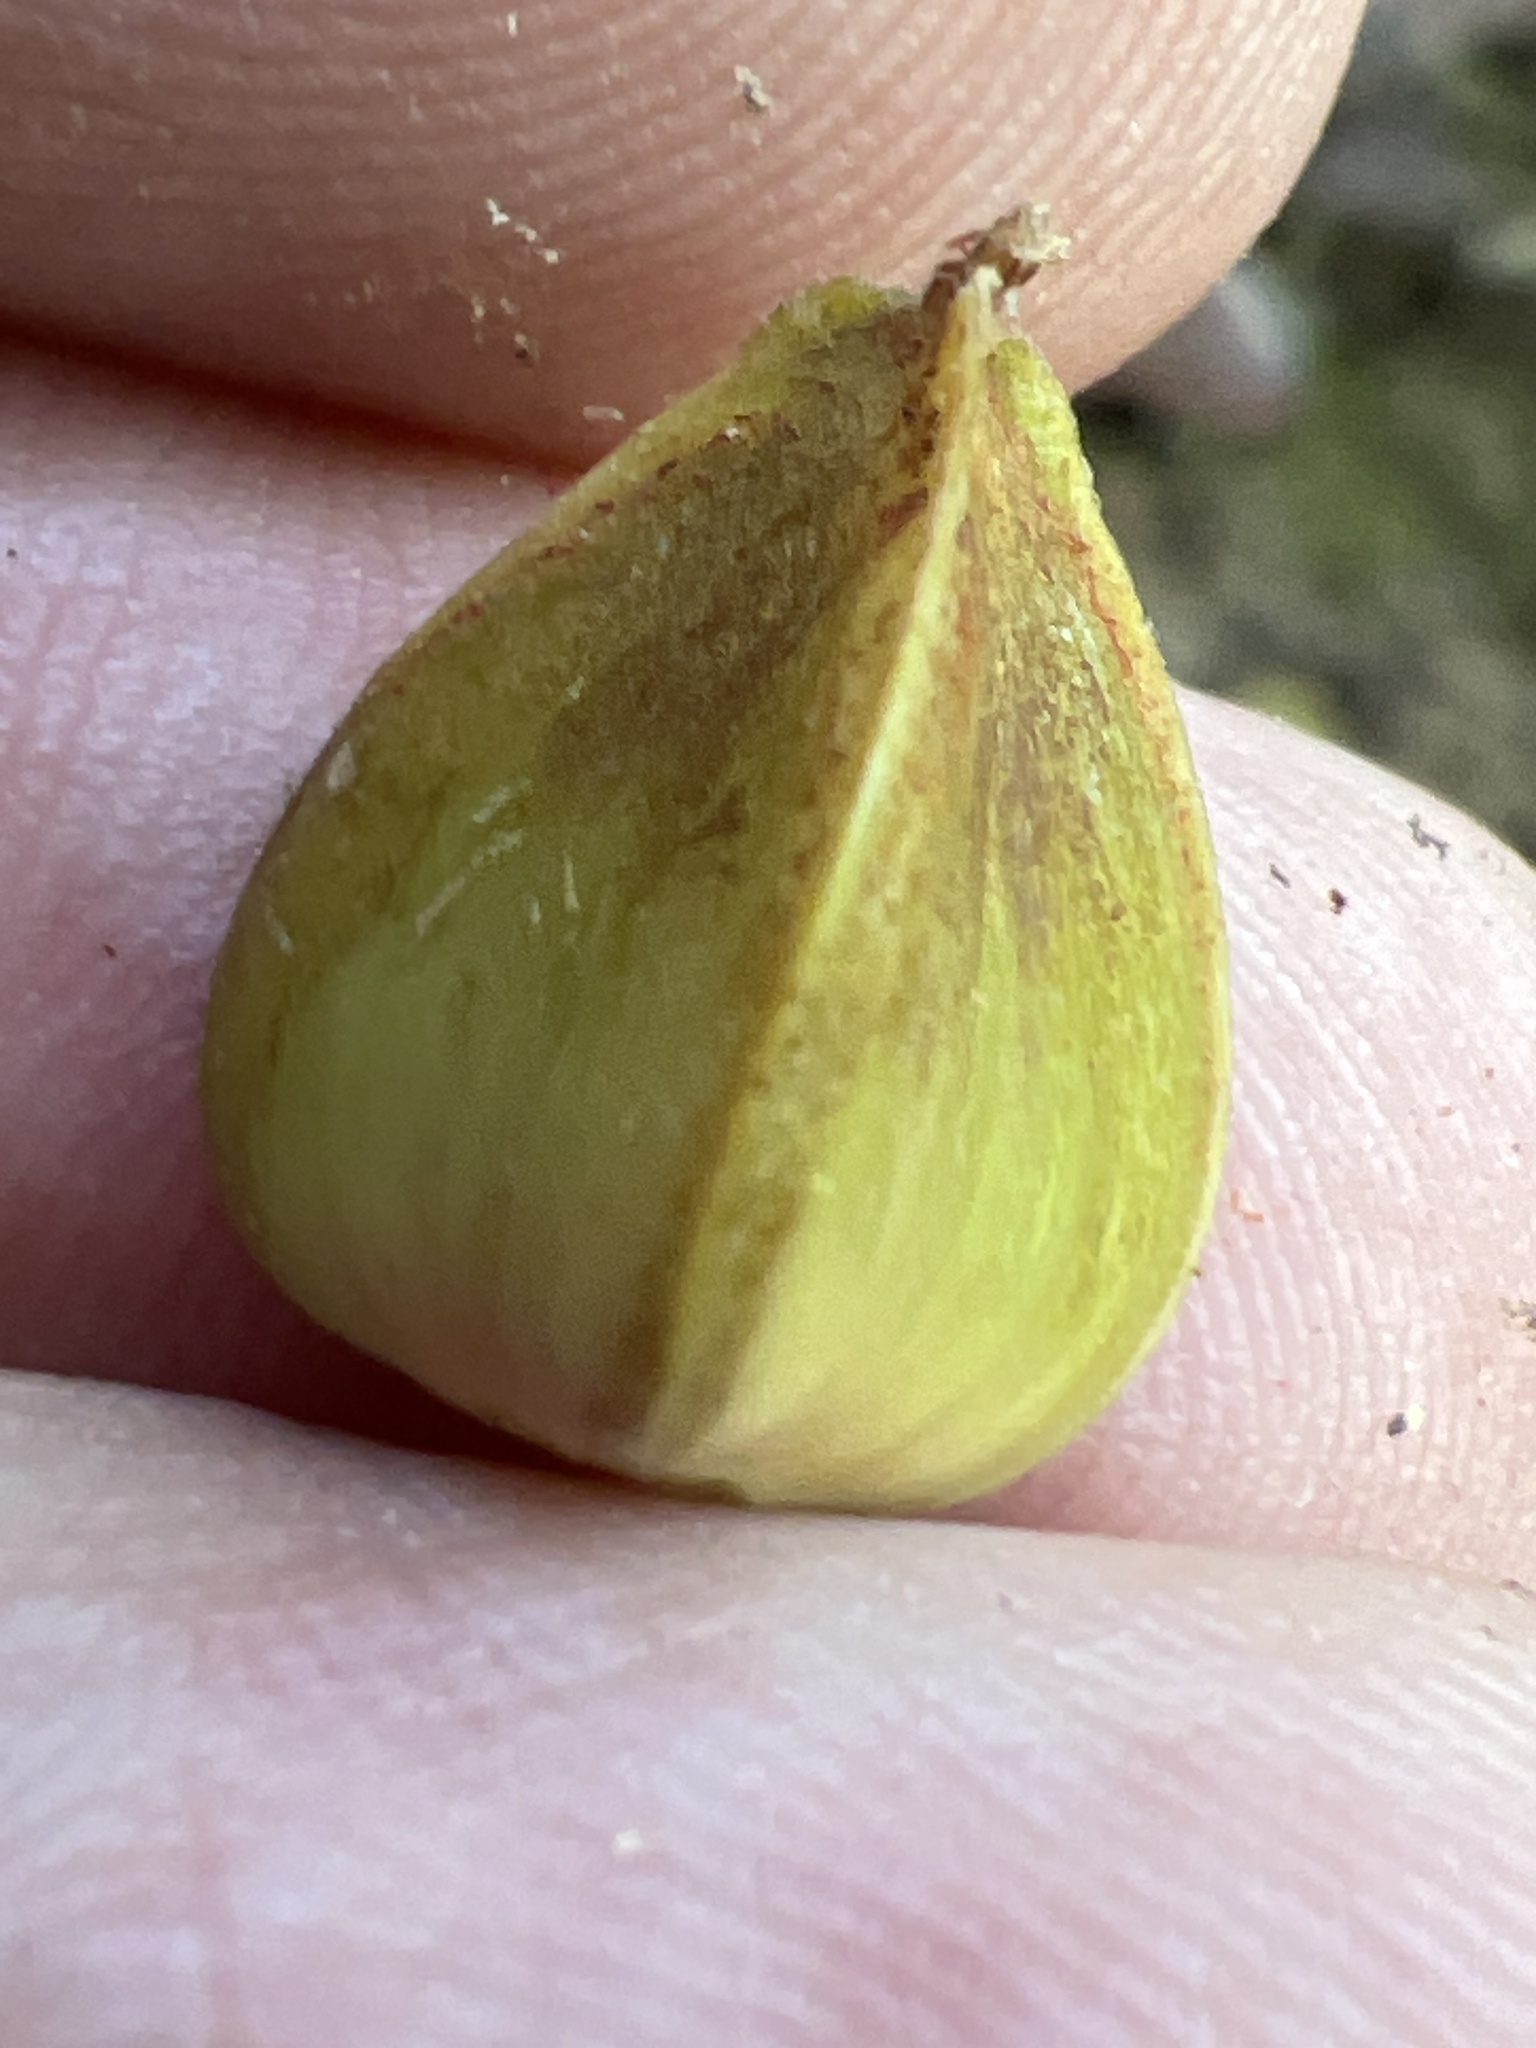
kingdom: Plantae
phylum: Tracheophyta
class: Magnoliopsida
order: Fagales
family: Fagaceae
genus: Fagus
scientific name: Fagus grandifolia
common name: American beech
